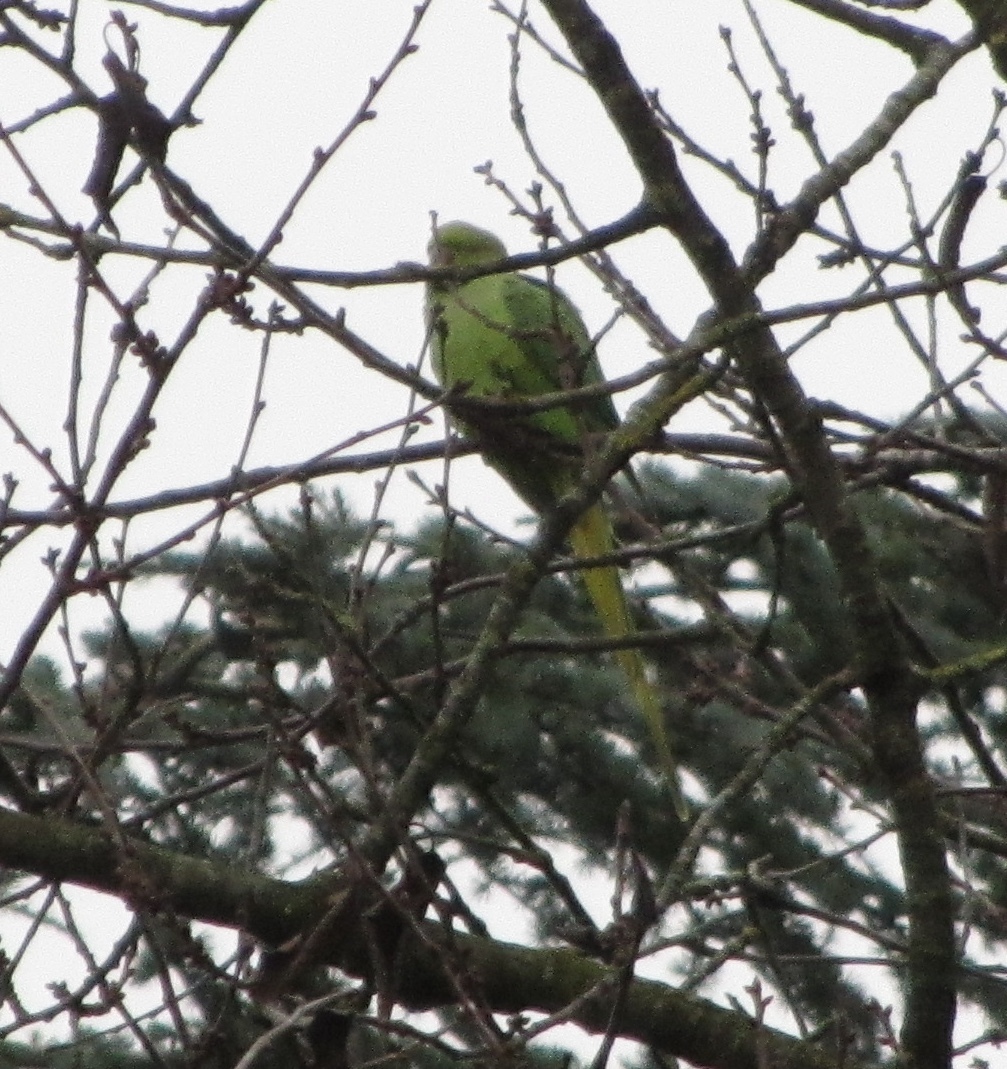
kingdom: Animalia
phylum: Chordata
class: Aves
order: Psittaciformes
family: Psittacidae
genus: Psittacula
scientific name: Psittacula krameri
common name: Rose-ringed parakeet
